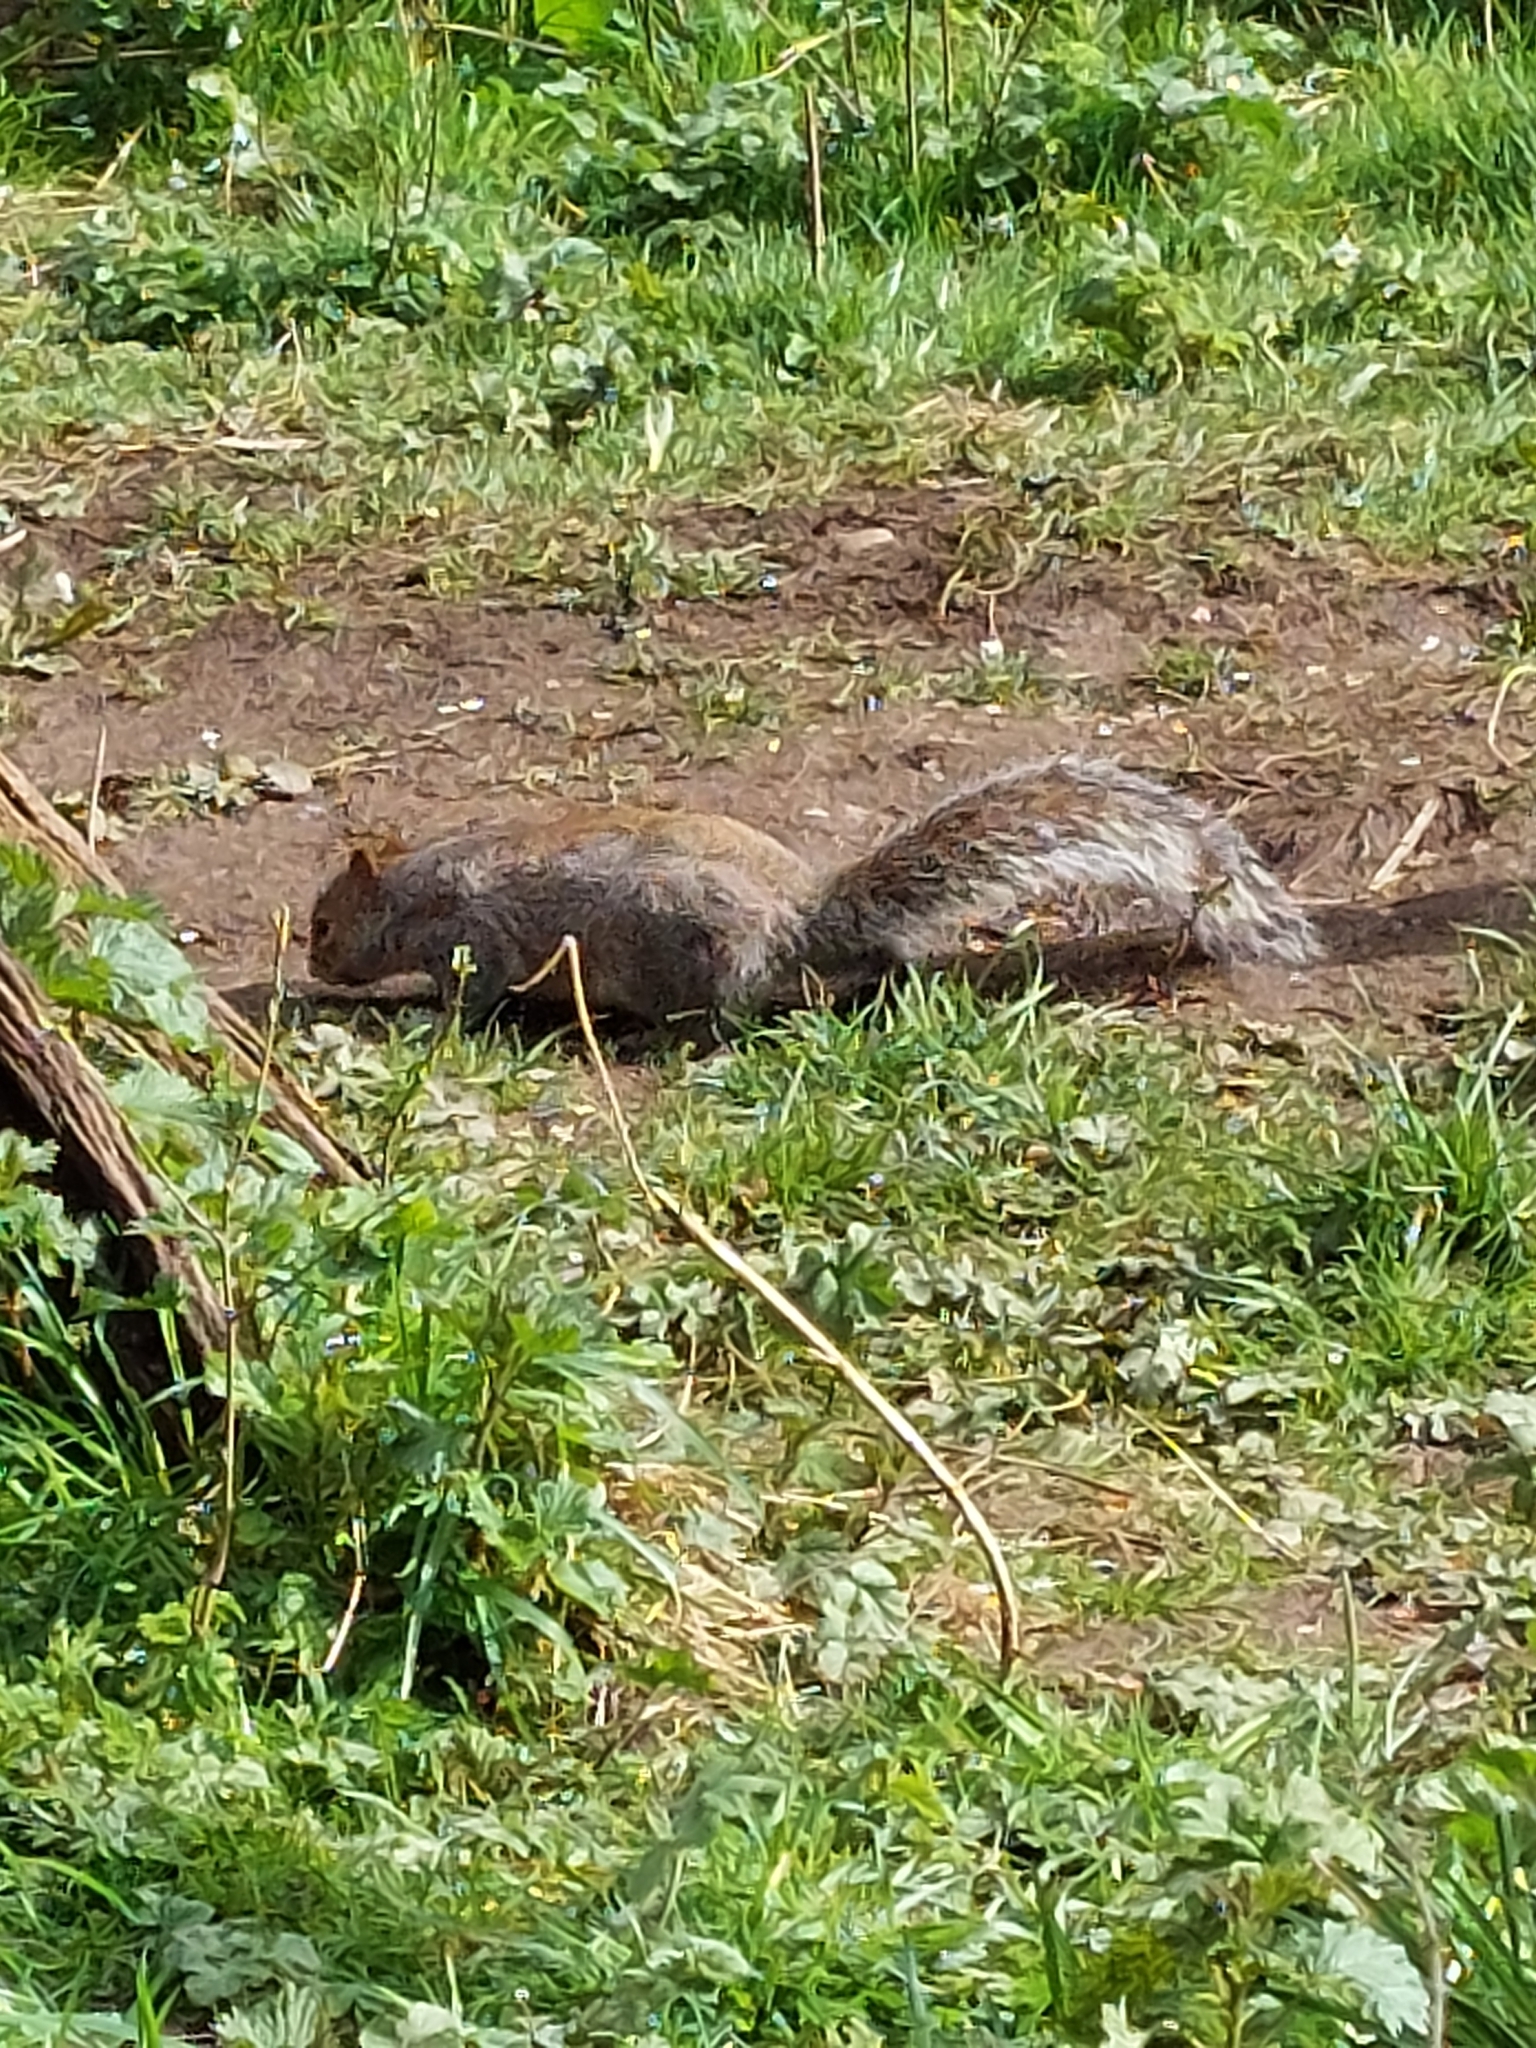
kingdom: Animalia
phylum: Chordata
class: Mammalia
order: Rodentia
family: Sciuridae
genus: Sciurus
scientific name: Sciurus carolinensis
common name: Eastern gray squirrel
